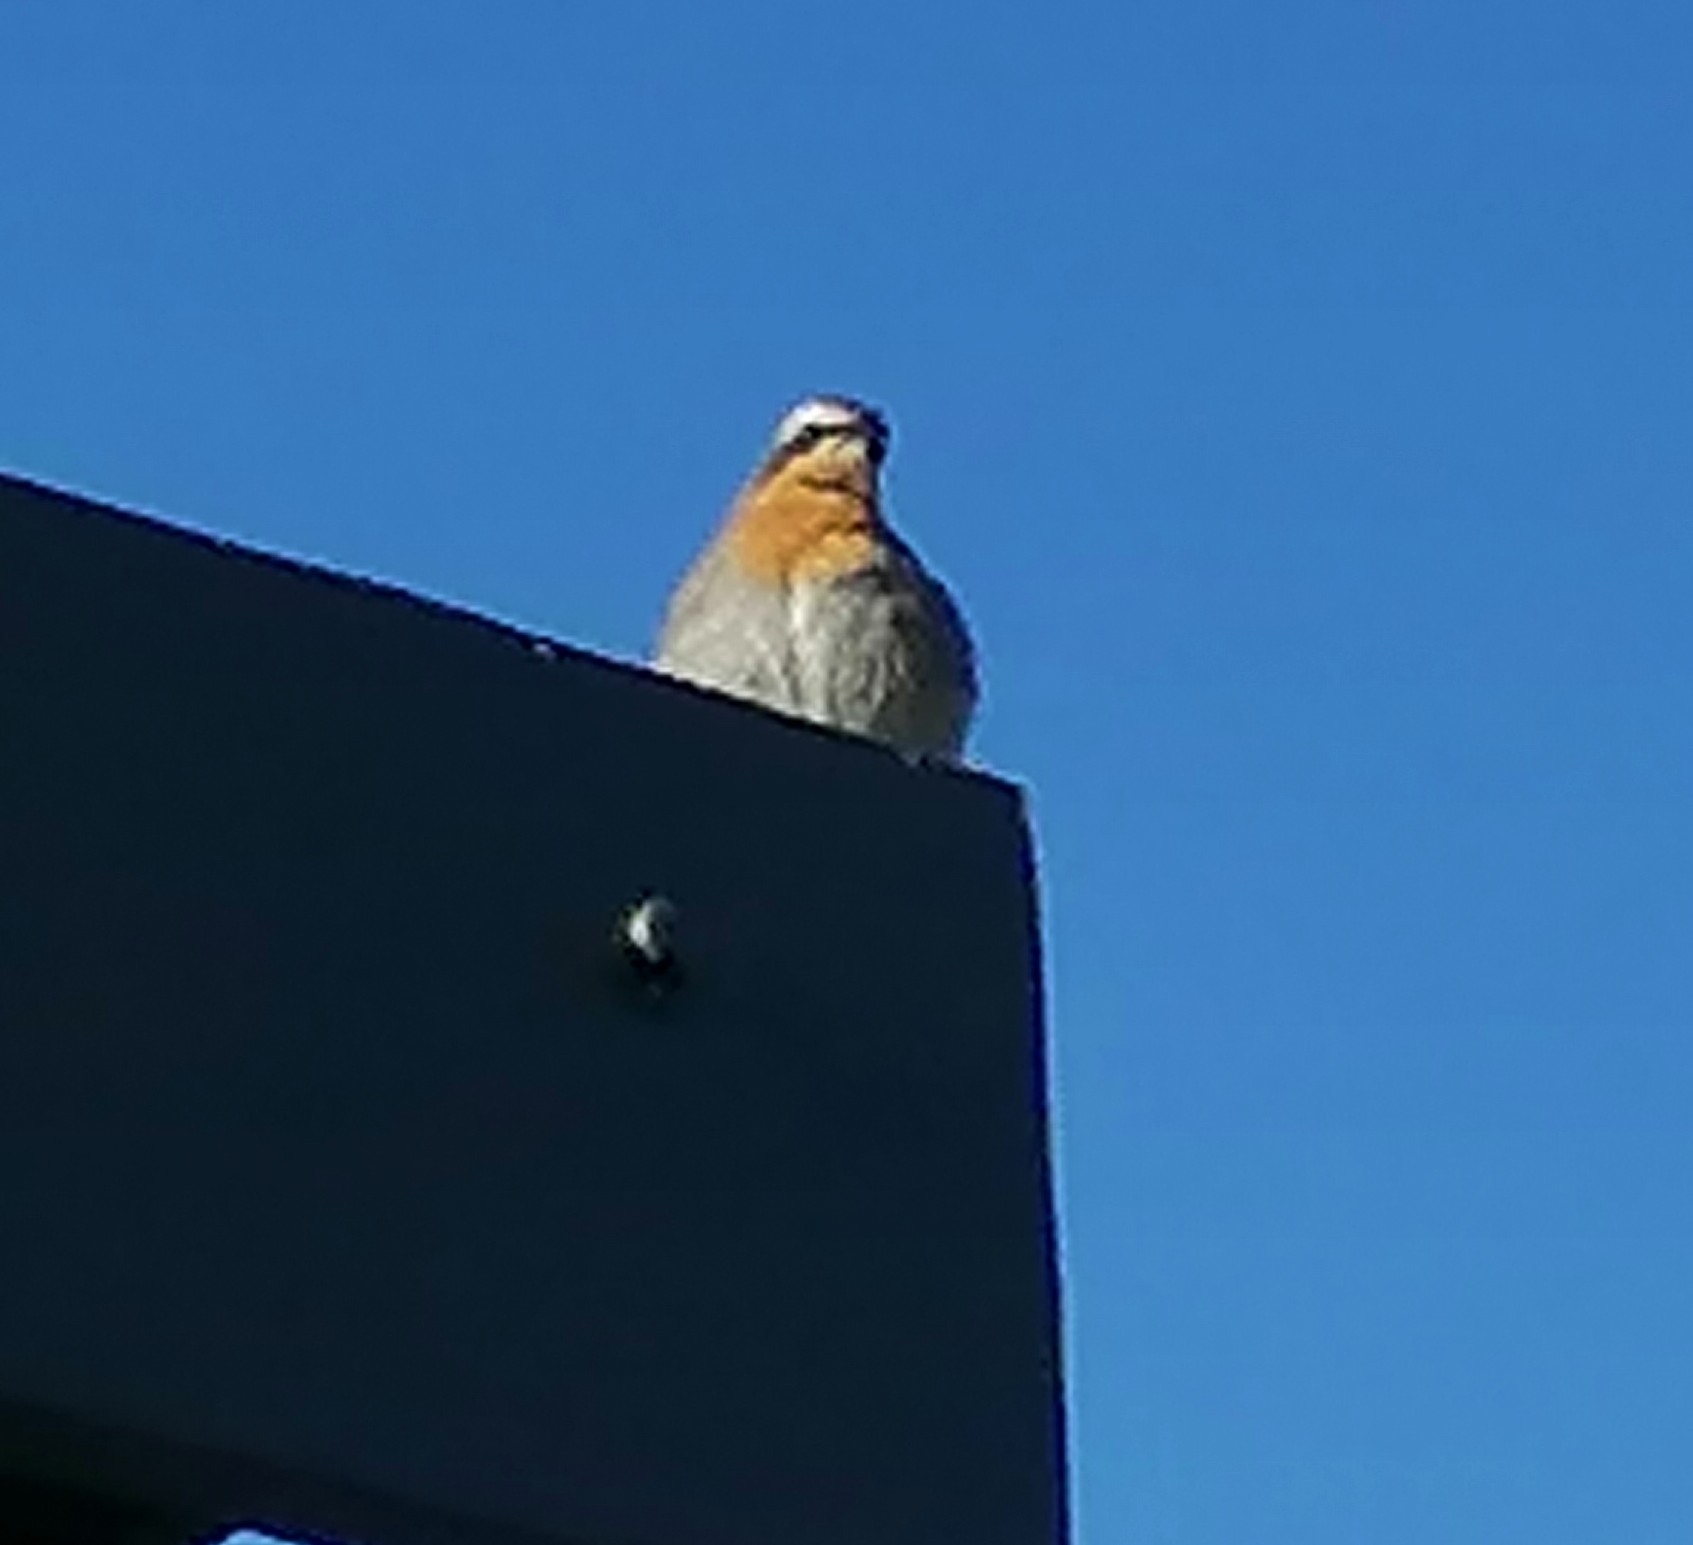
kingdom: Animalia
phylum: Chordata
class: Aves
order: Passeriformes
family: Muscicapidae
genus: Cossypha
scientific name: Cossypha caffra
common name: Cape robin-chat
